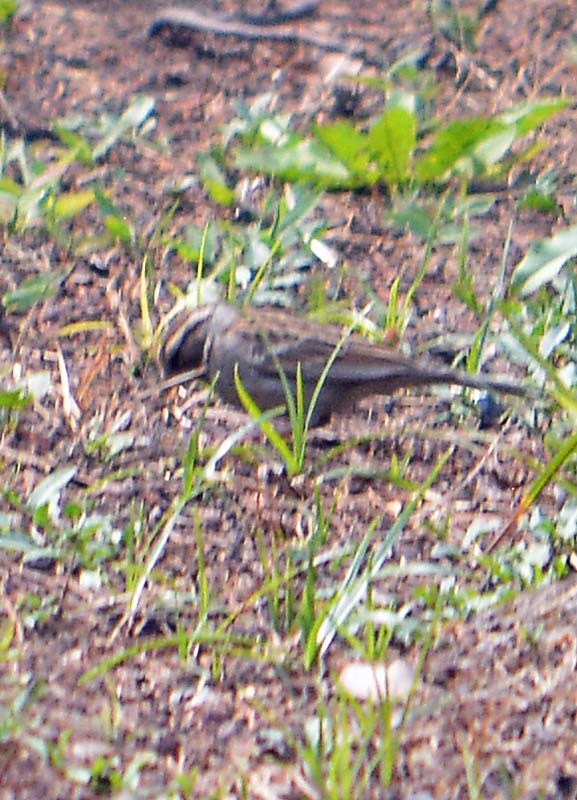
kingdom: Animalia
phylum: Chordata
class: Aves
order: Passeriformes
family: Passerellidae
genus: Spizella
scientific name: Spizella passerina
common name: Chipping sparrow
